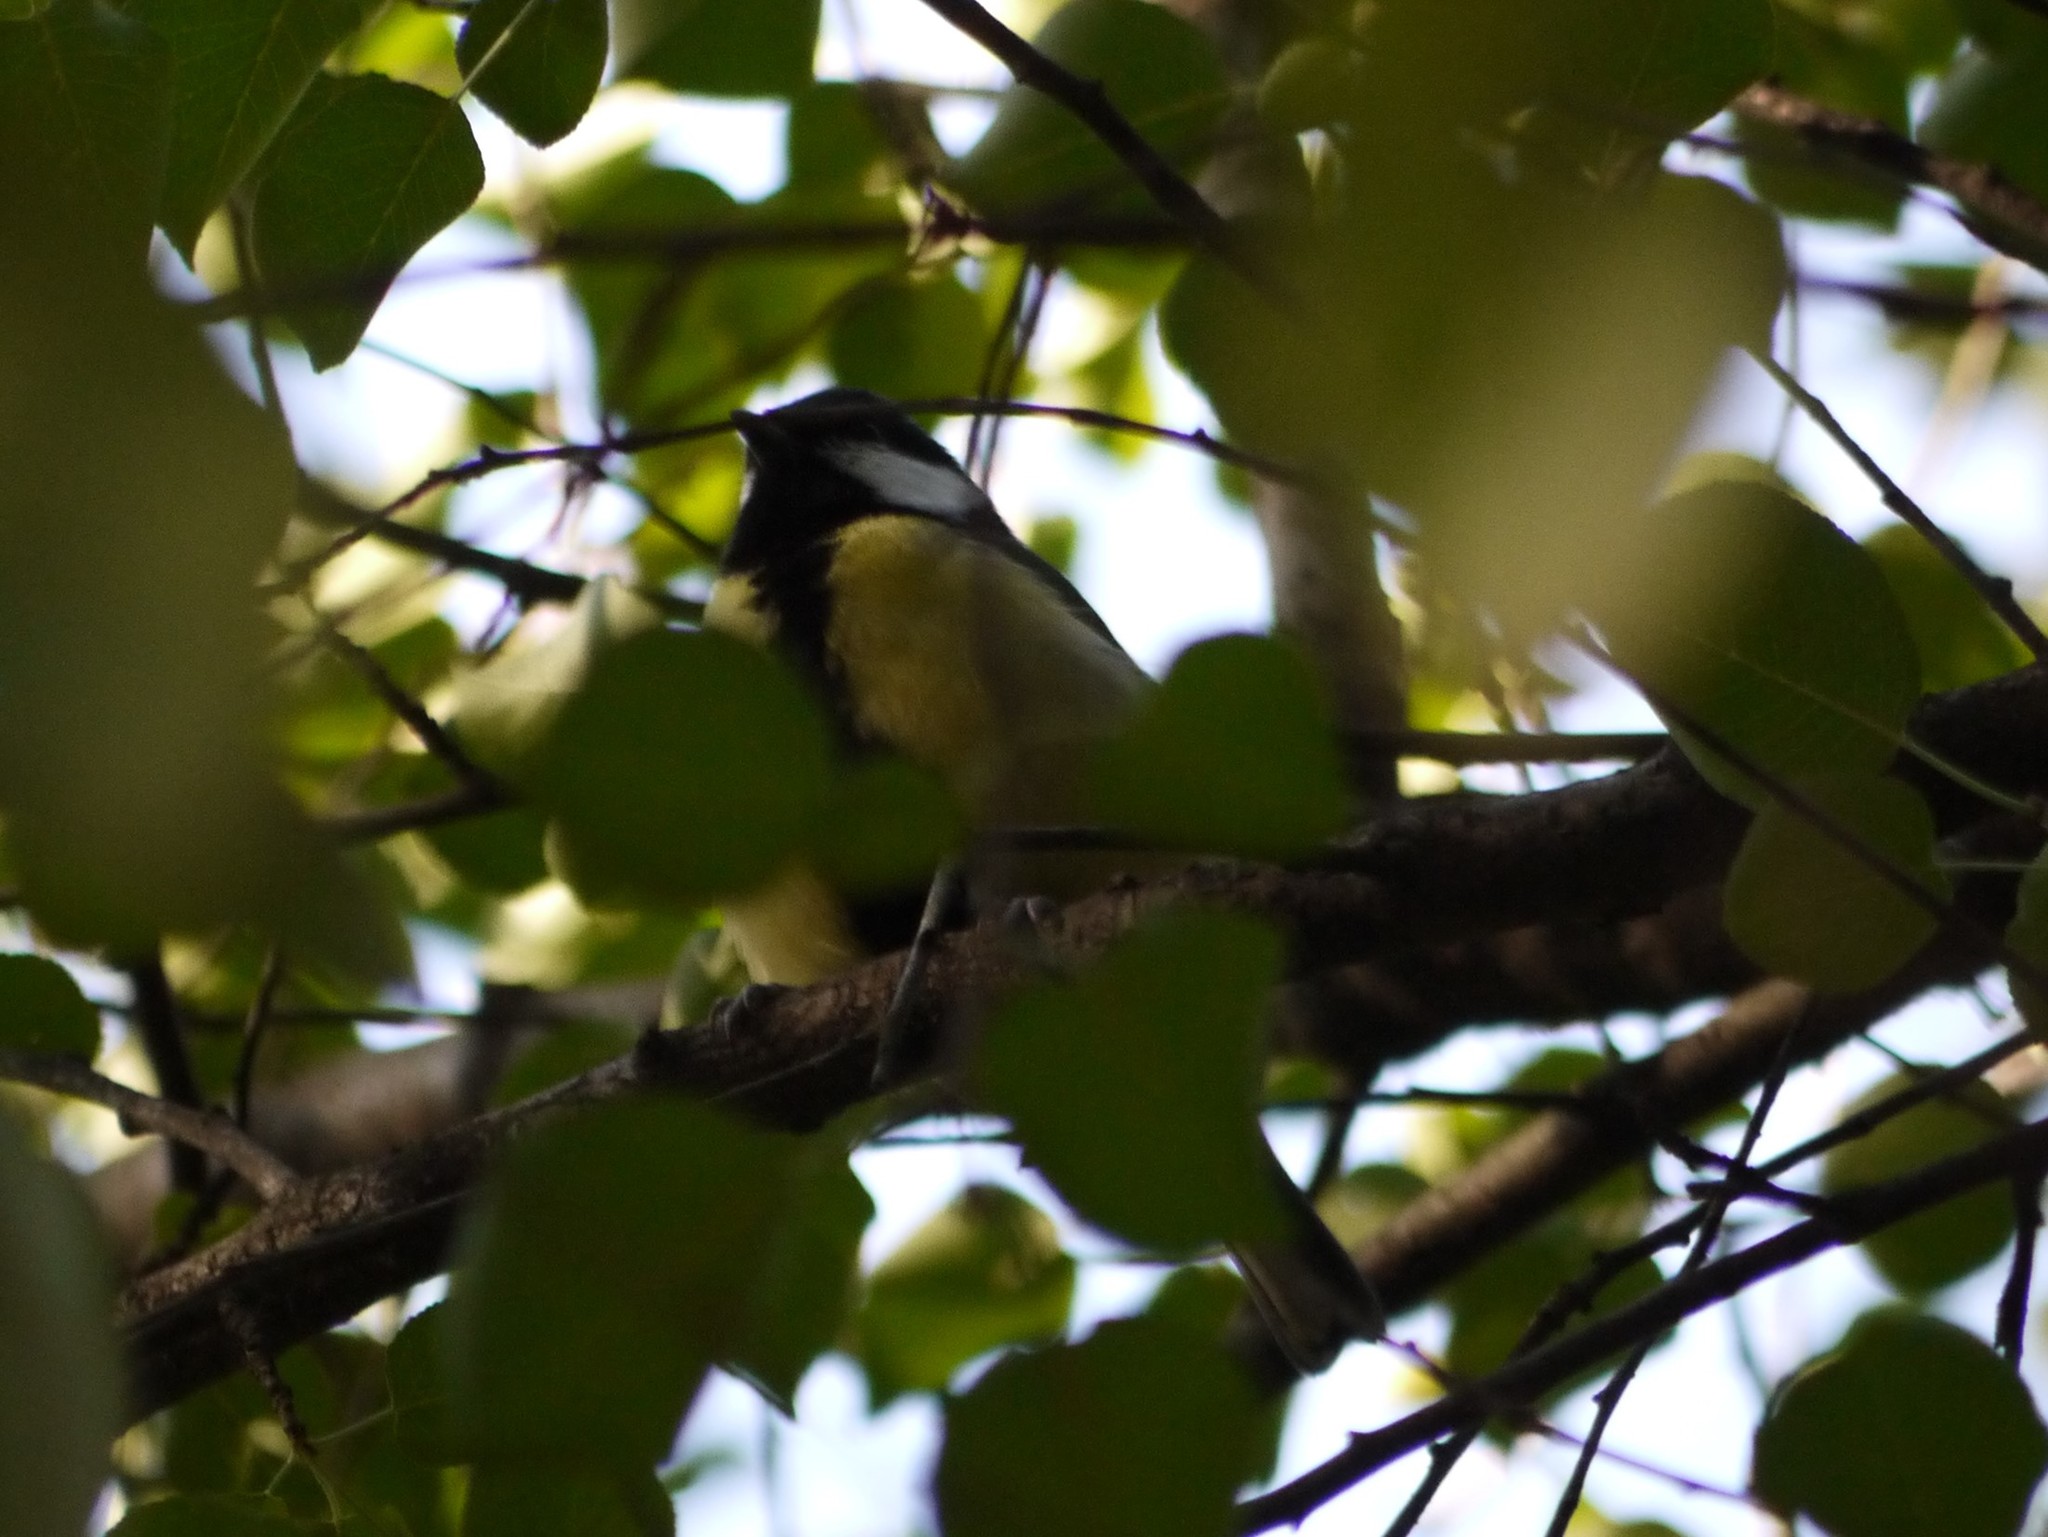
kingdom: Animalia
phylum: Chordata
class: Aves
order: Passeriformes
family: Paridae
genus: Parus
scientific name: Parus major
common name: Great tit
